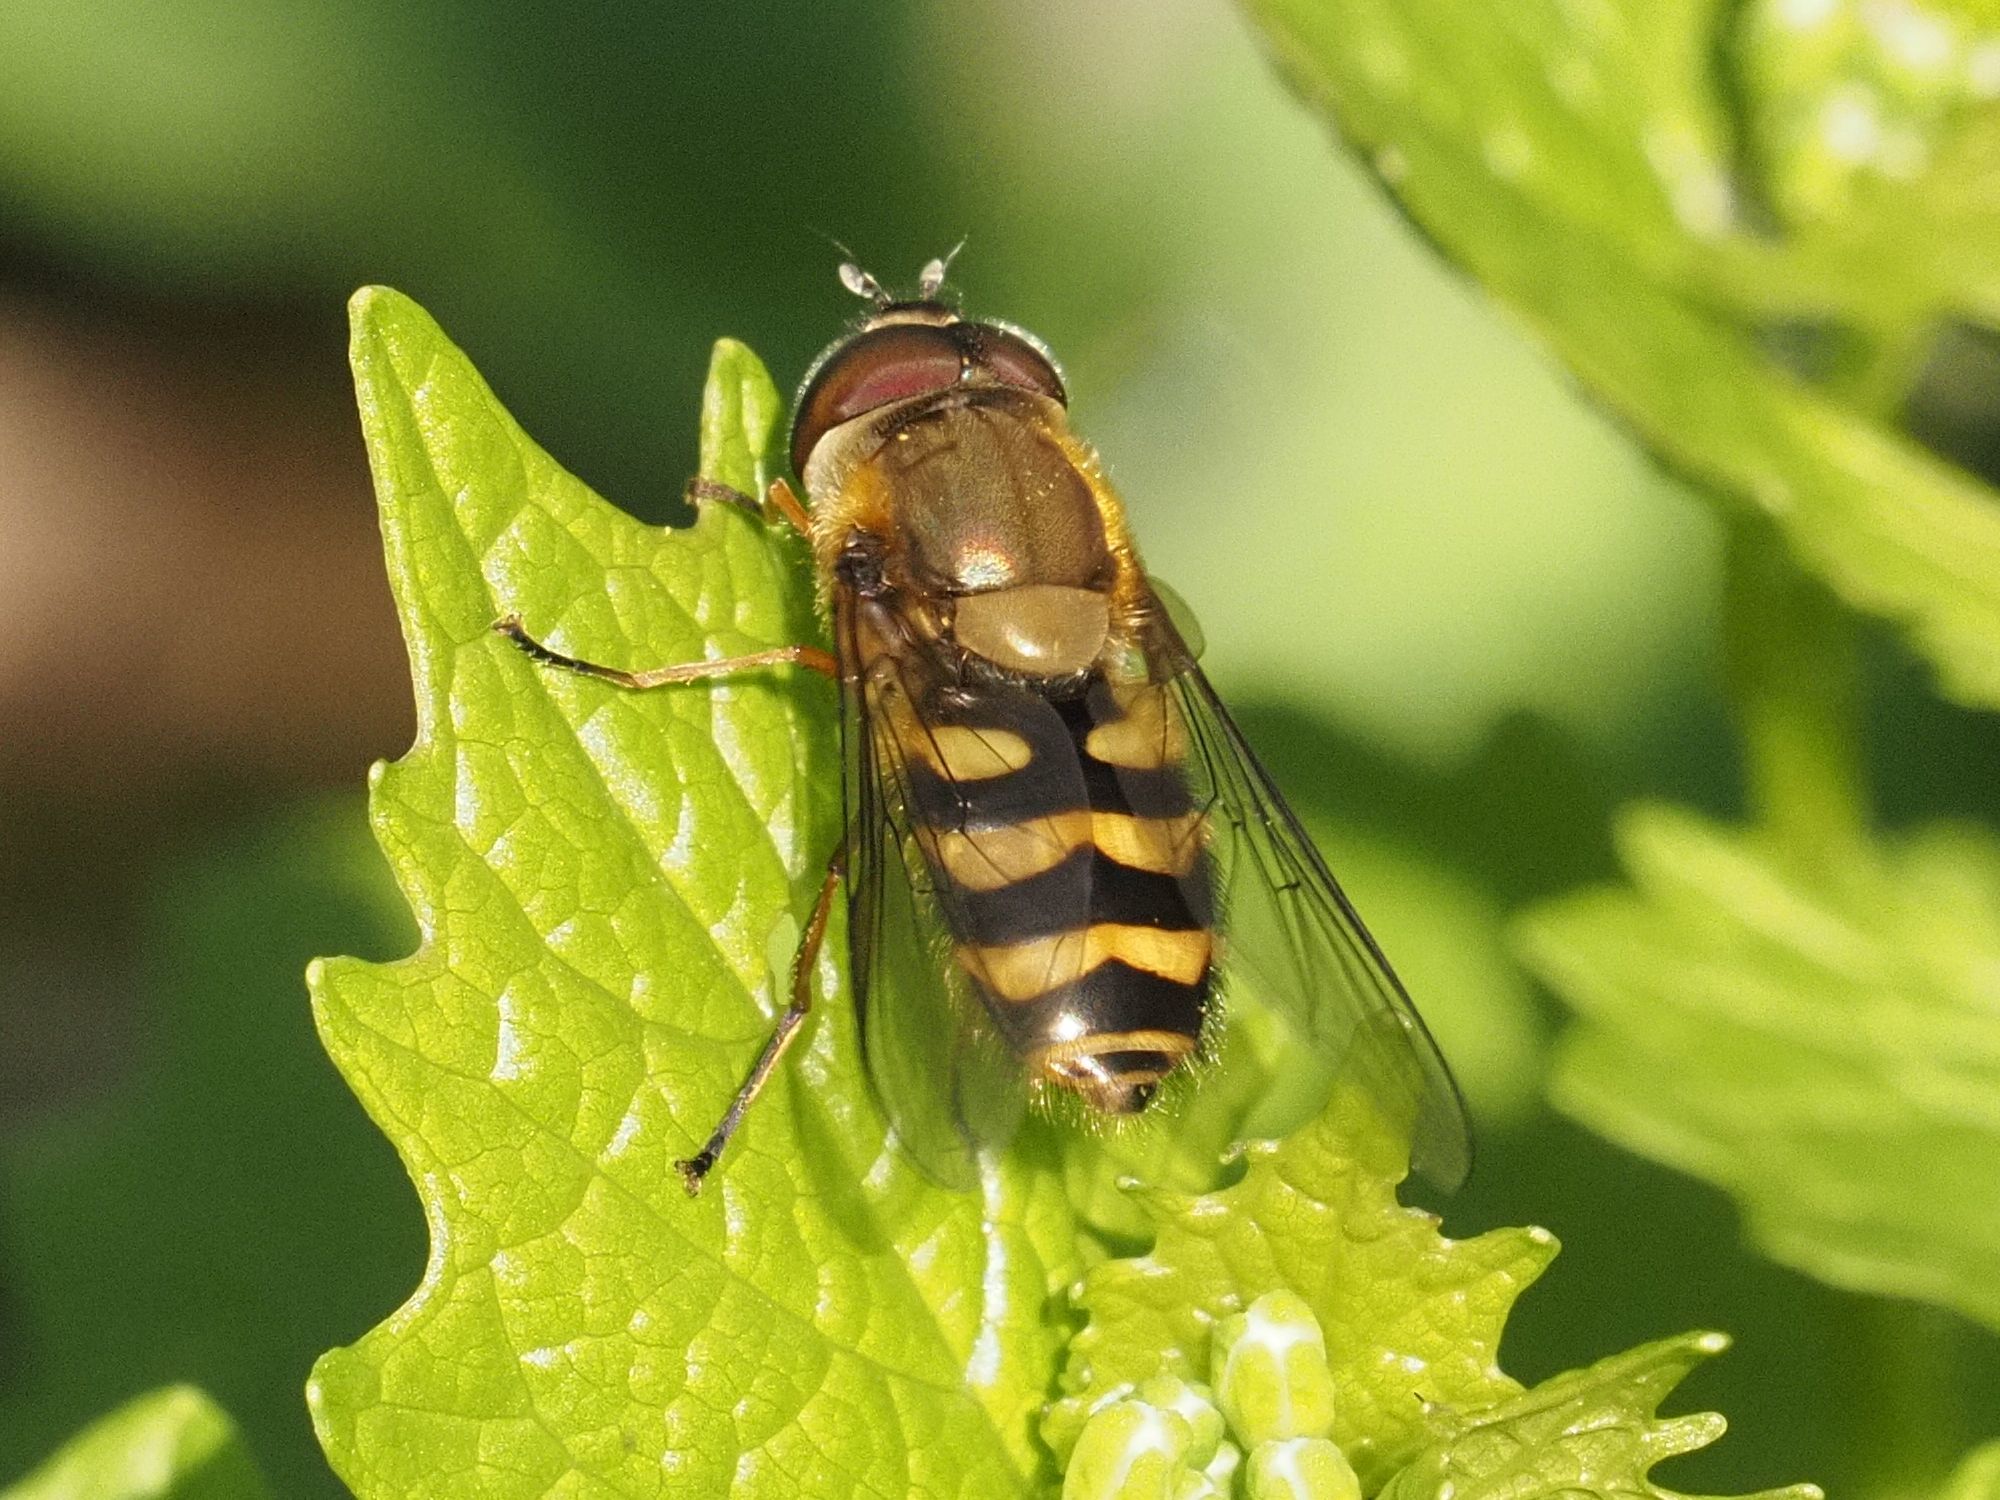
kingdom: Animalia
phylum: Arthropoda
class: Insecta
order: Diptera
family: Syrphidae
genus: Syrphus
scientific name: Syrphus torvus
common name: Hairy-eyed flower fly
